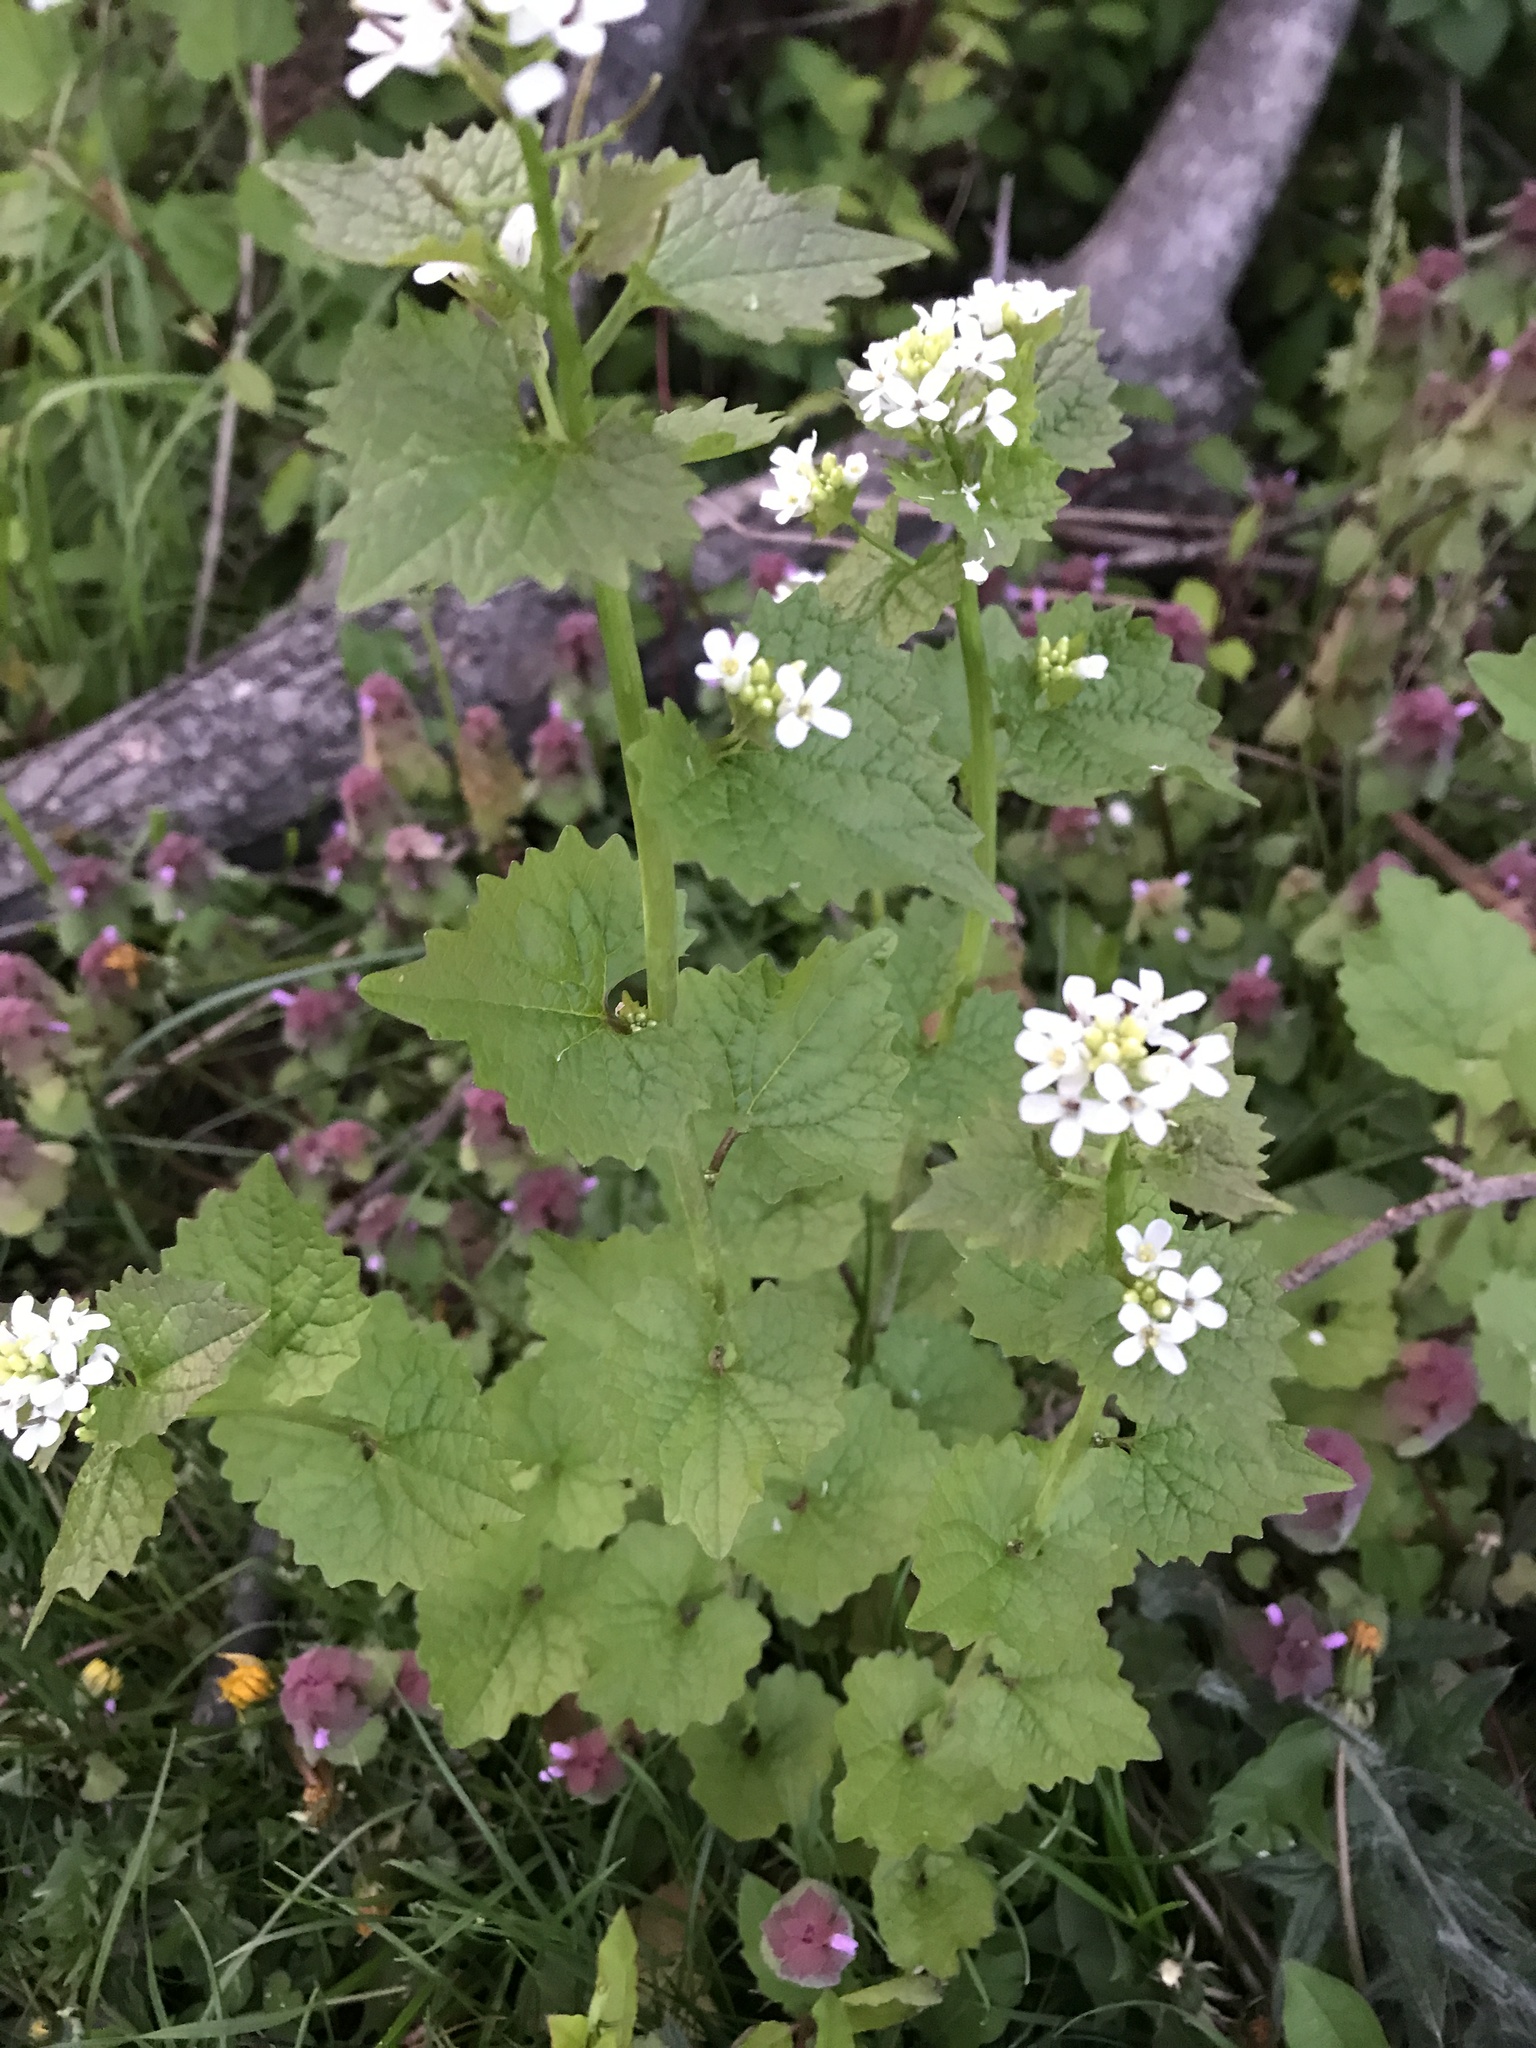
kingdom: Plantae
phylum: Tracheophyta
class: Magnoliopsida
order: Brassicales
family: Brassicaceae
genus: Alliaria
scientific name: Alliaria petiolata
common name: Garlic mustard
